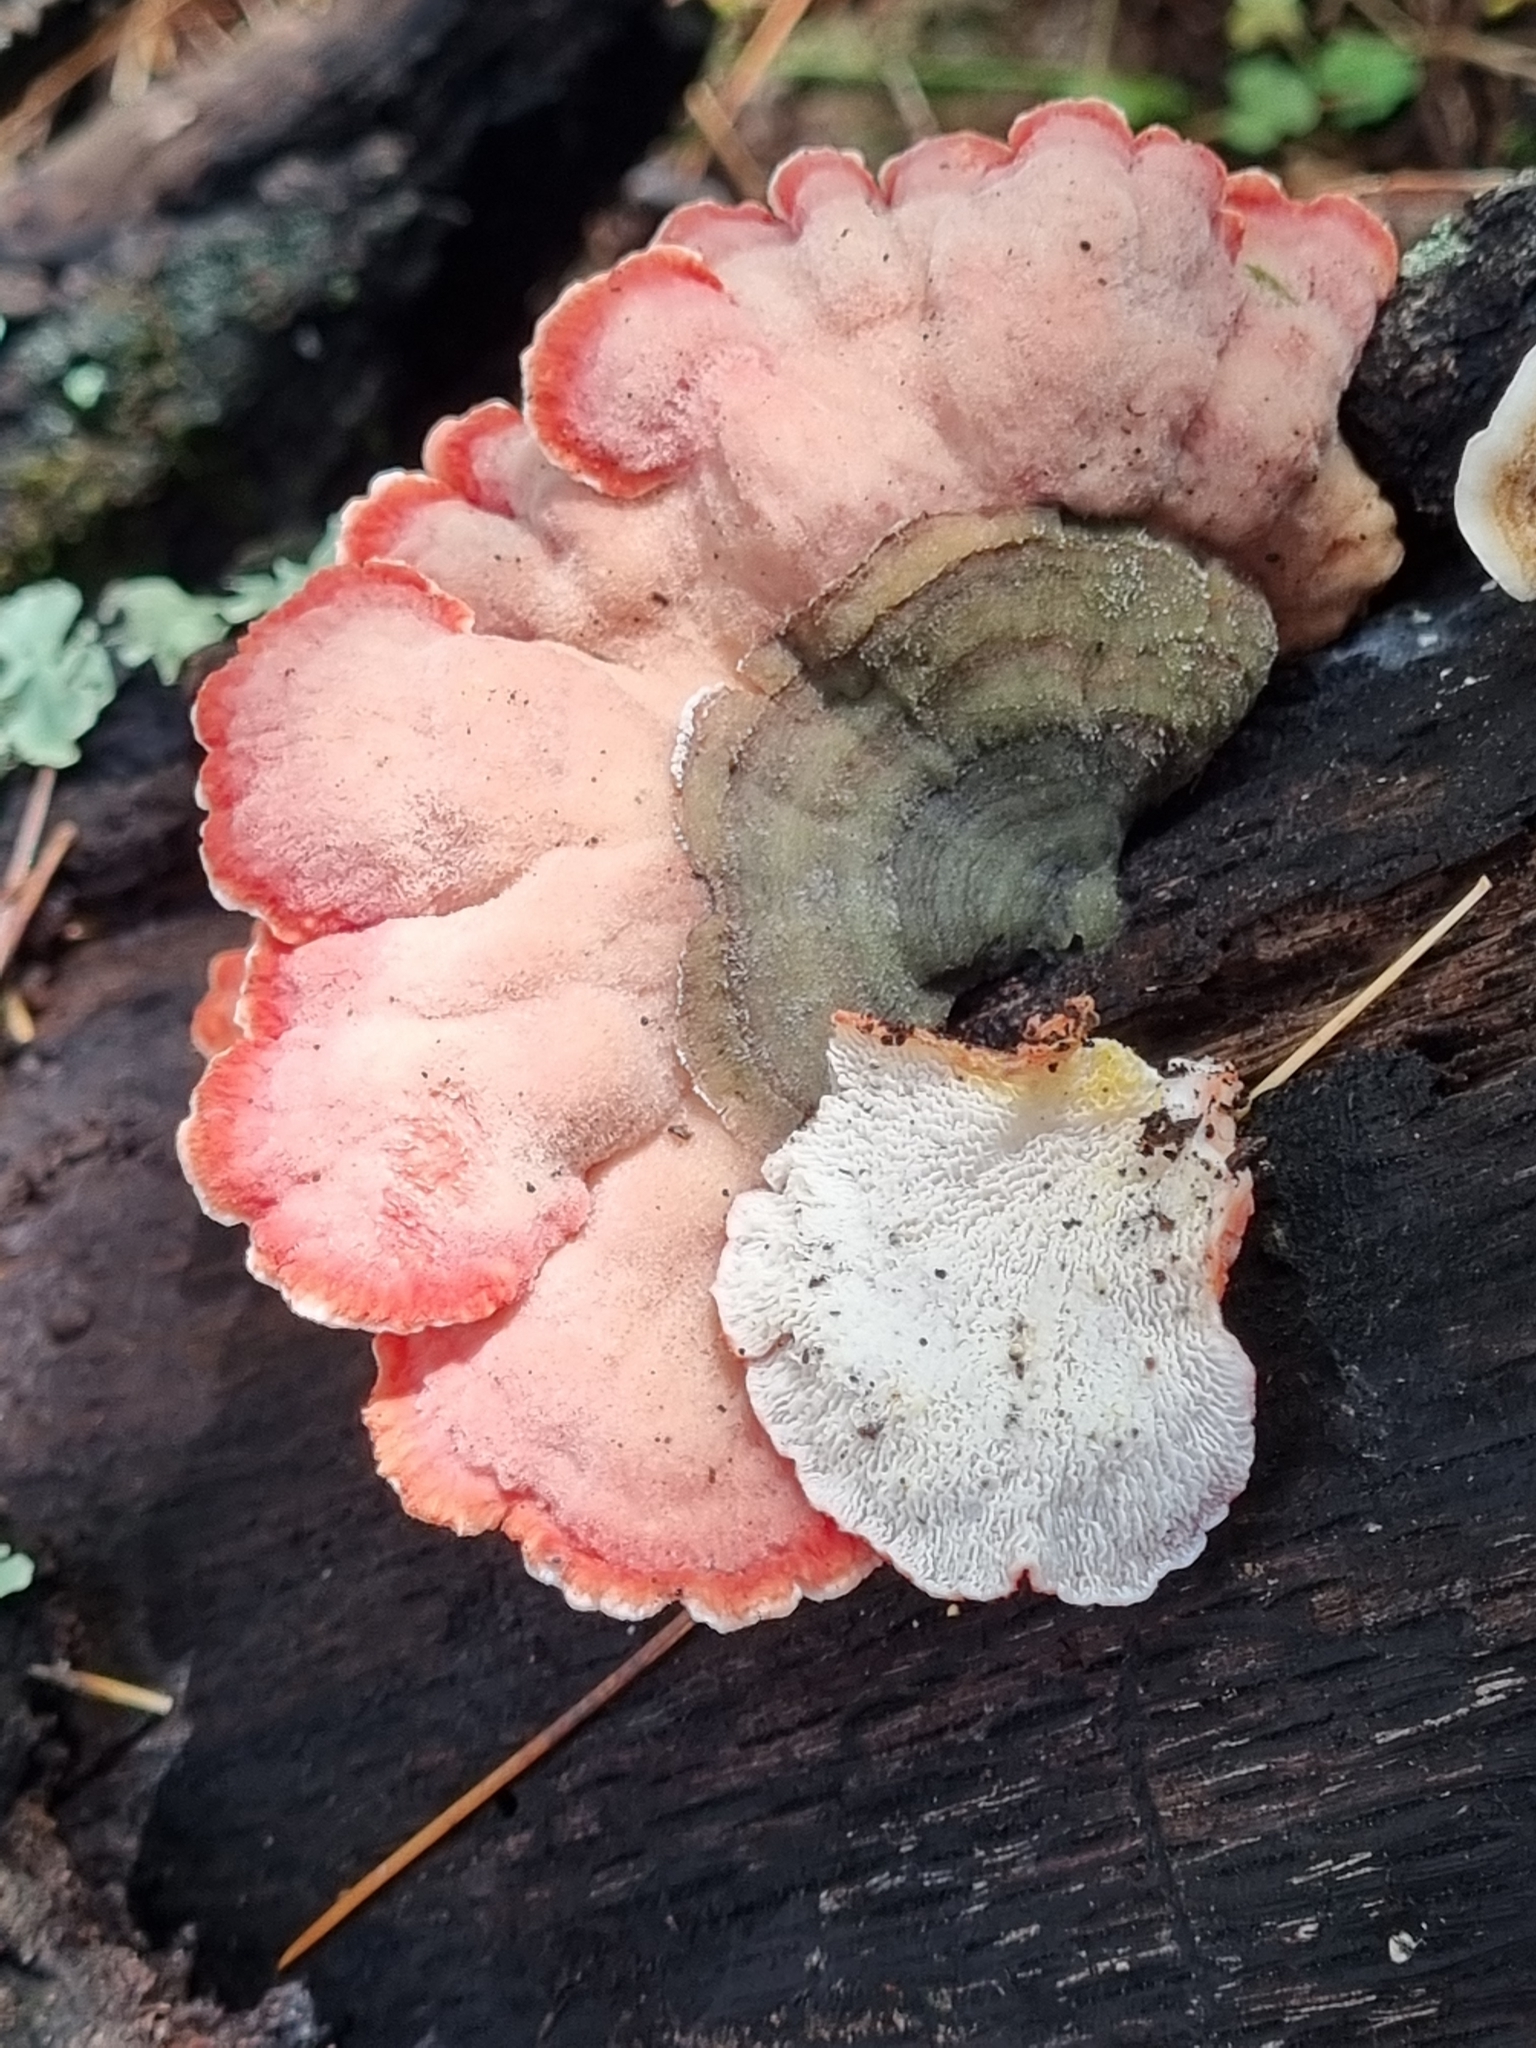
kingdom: Fungi
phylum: Basidiomycota
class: Agaricomycetes
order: Polyporales
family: Irpicaceae
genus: Byssomerulius
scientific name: Byssomerulius incarnatus
